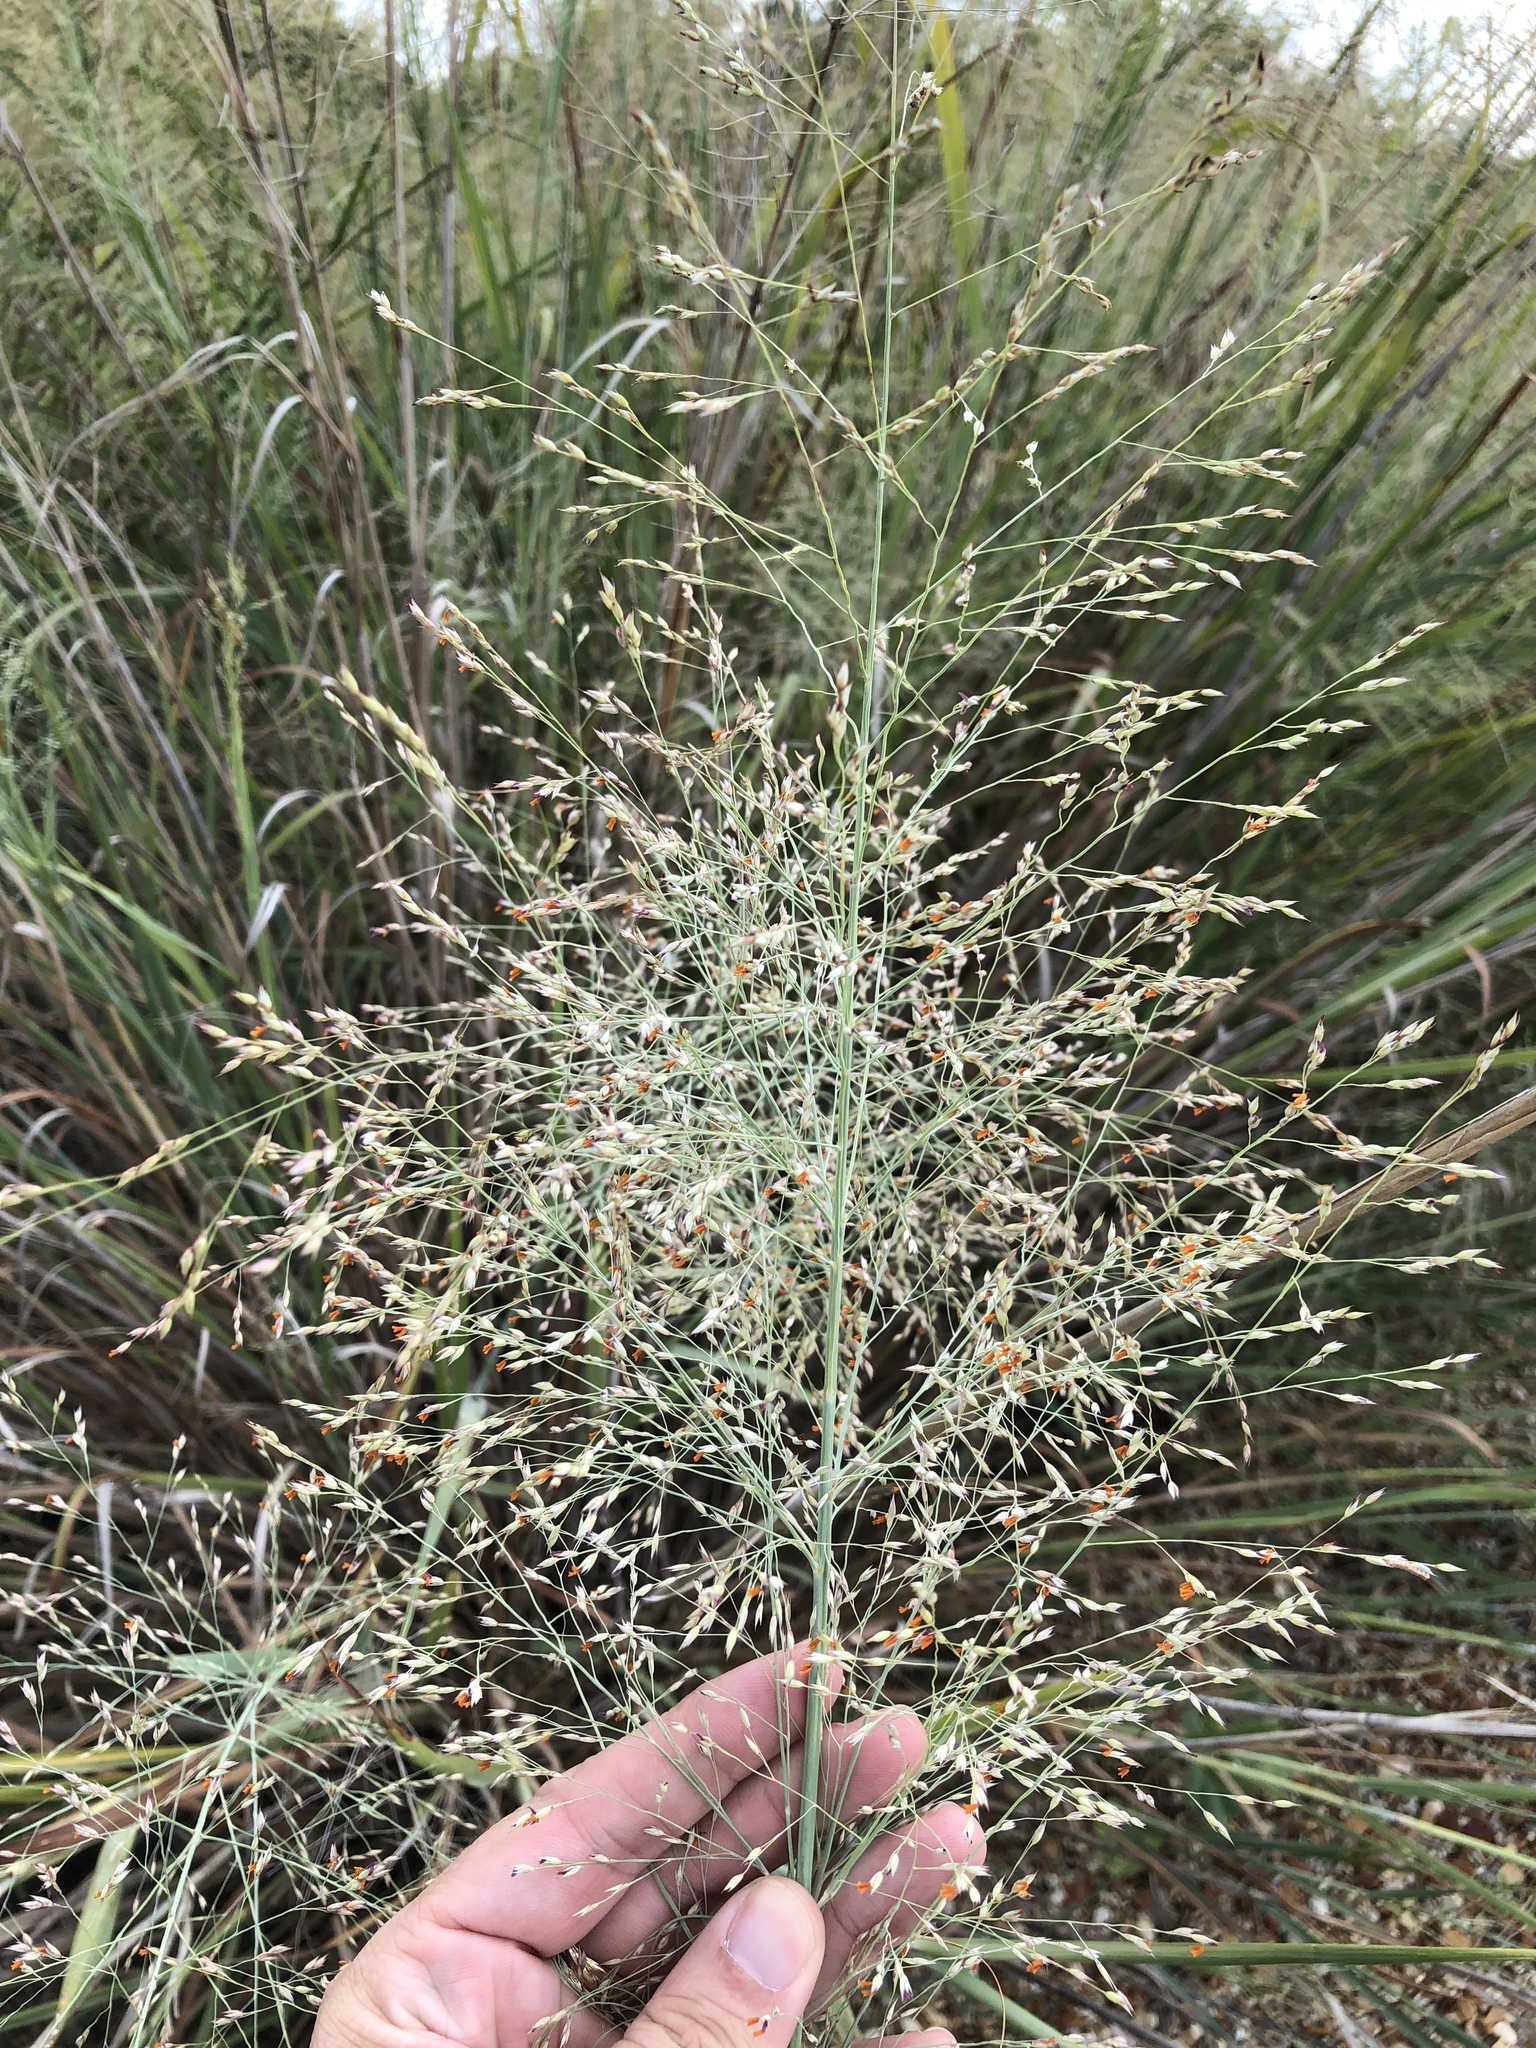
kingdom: Plantae
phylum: Tracheophyta
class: Liliopsida
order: Poales
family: Poaceae
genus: Panicum
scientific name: Panicum virgatum
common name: Switchgrass
